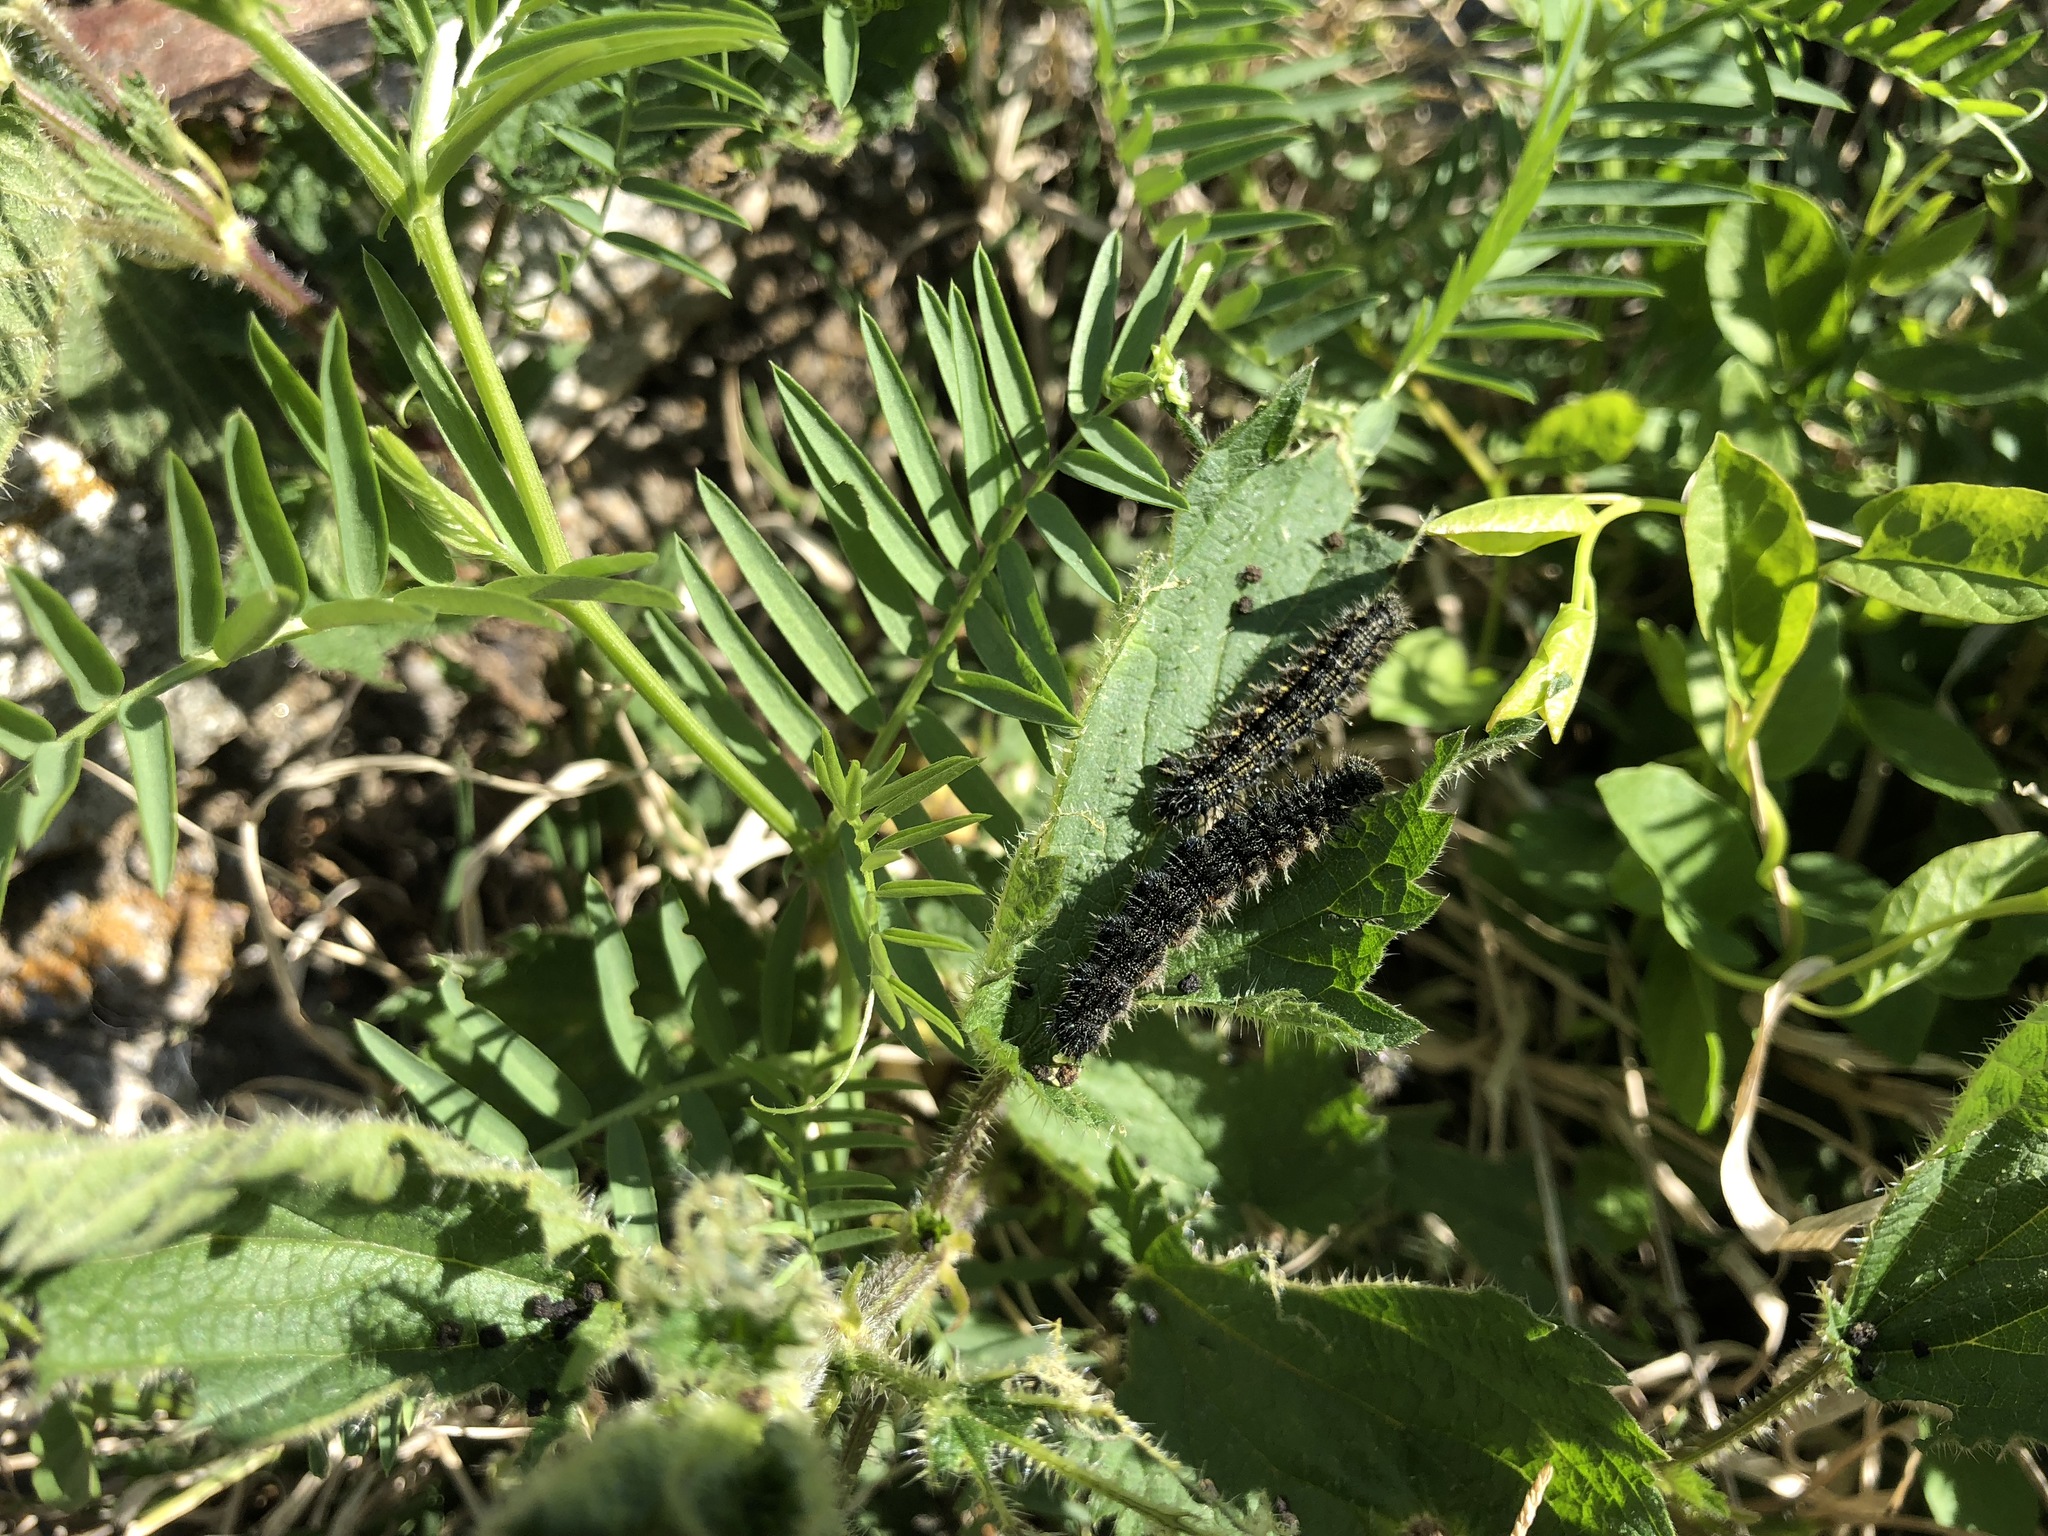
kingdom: Animalia
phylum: Arthropoda
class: Insecta
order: Lepidoptera
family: Nymphalidae
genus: Aglais
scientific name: Aglais urticae
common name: Small tortoiseshell
